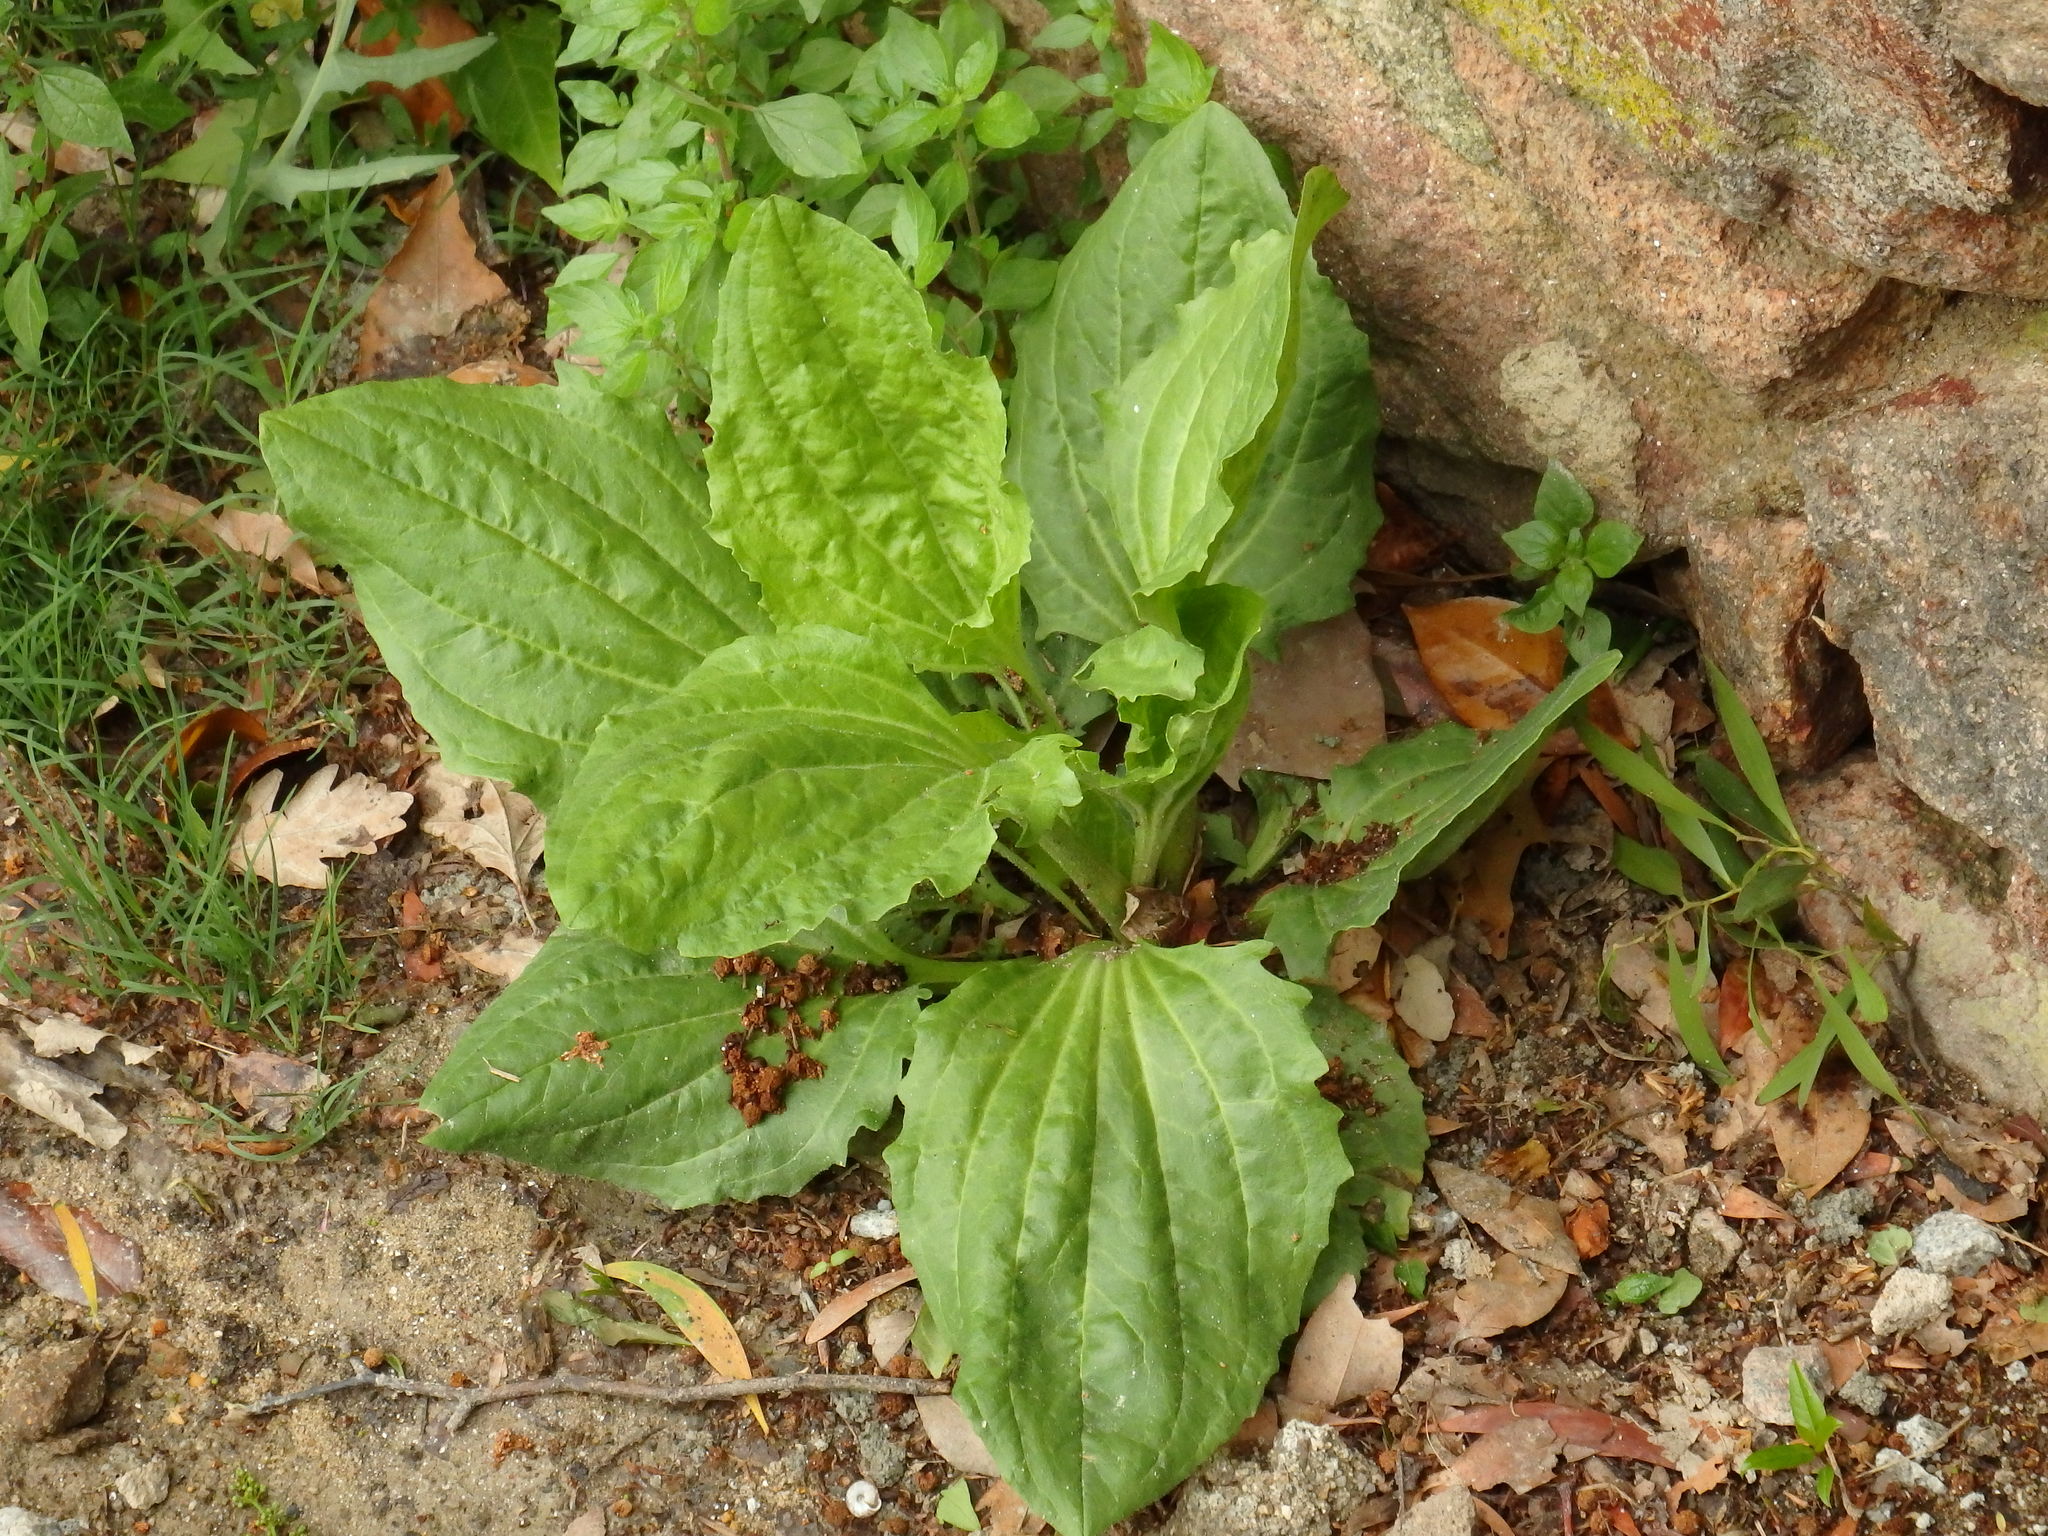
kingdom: Plantae
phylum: Tracheophyta
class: Magnoliopsida
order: Lamiales
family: Plantaginaceae
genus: Plantago
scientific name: Plantago major
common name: Common plantain
